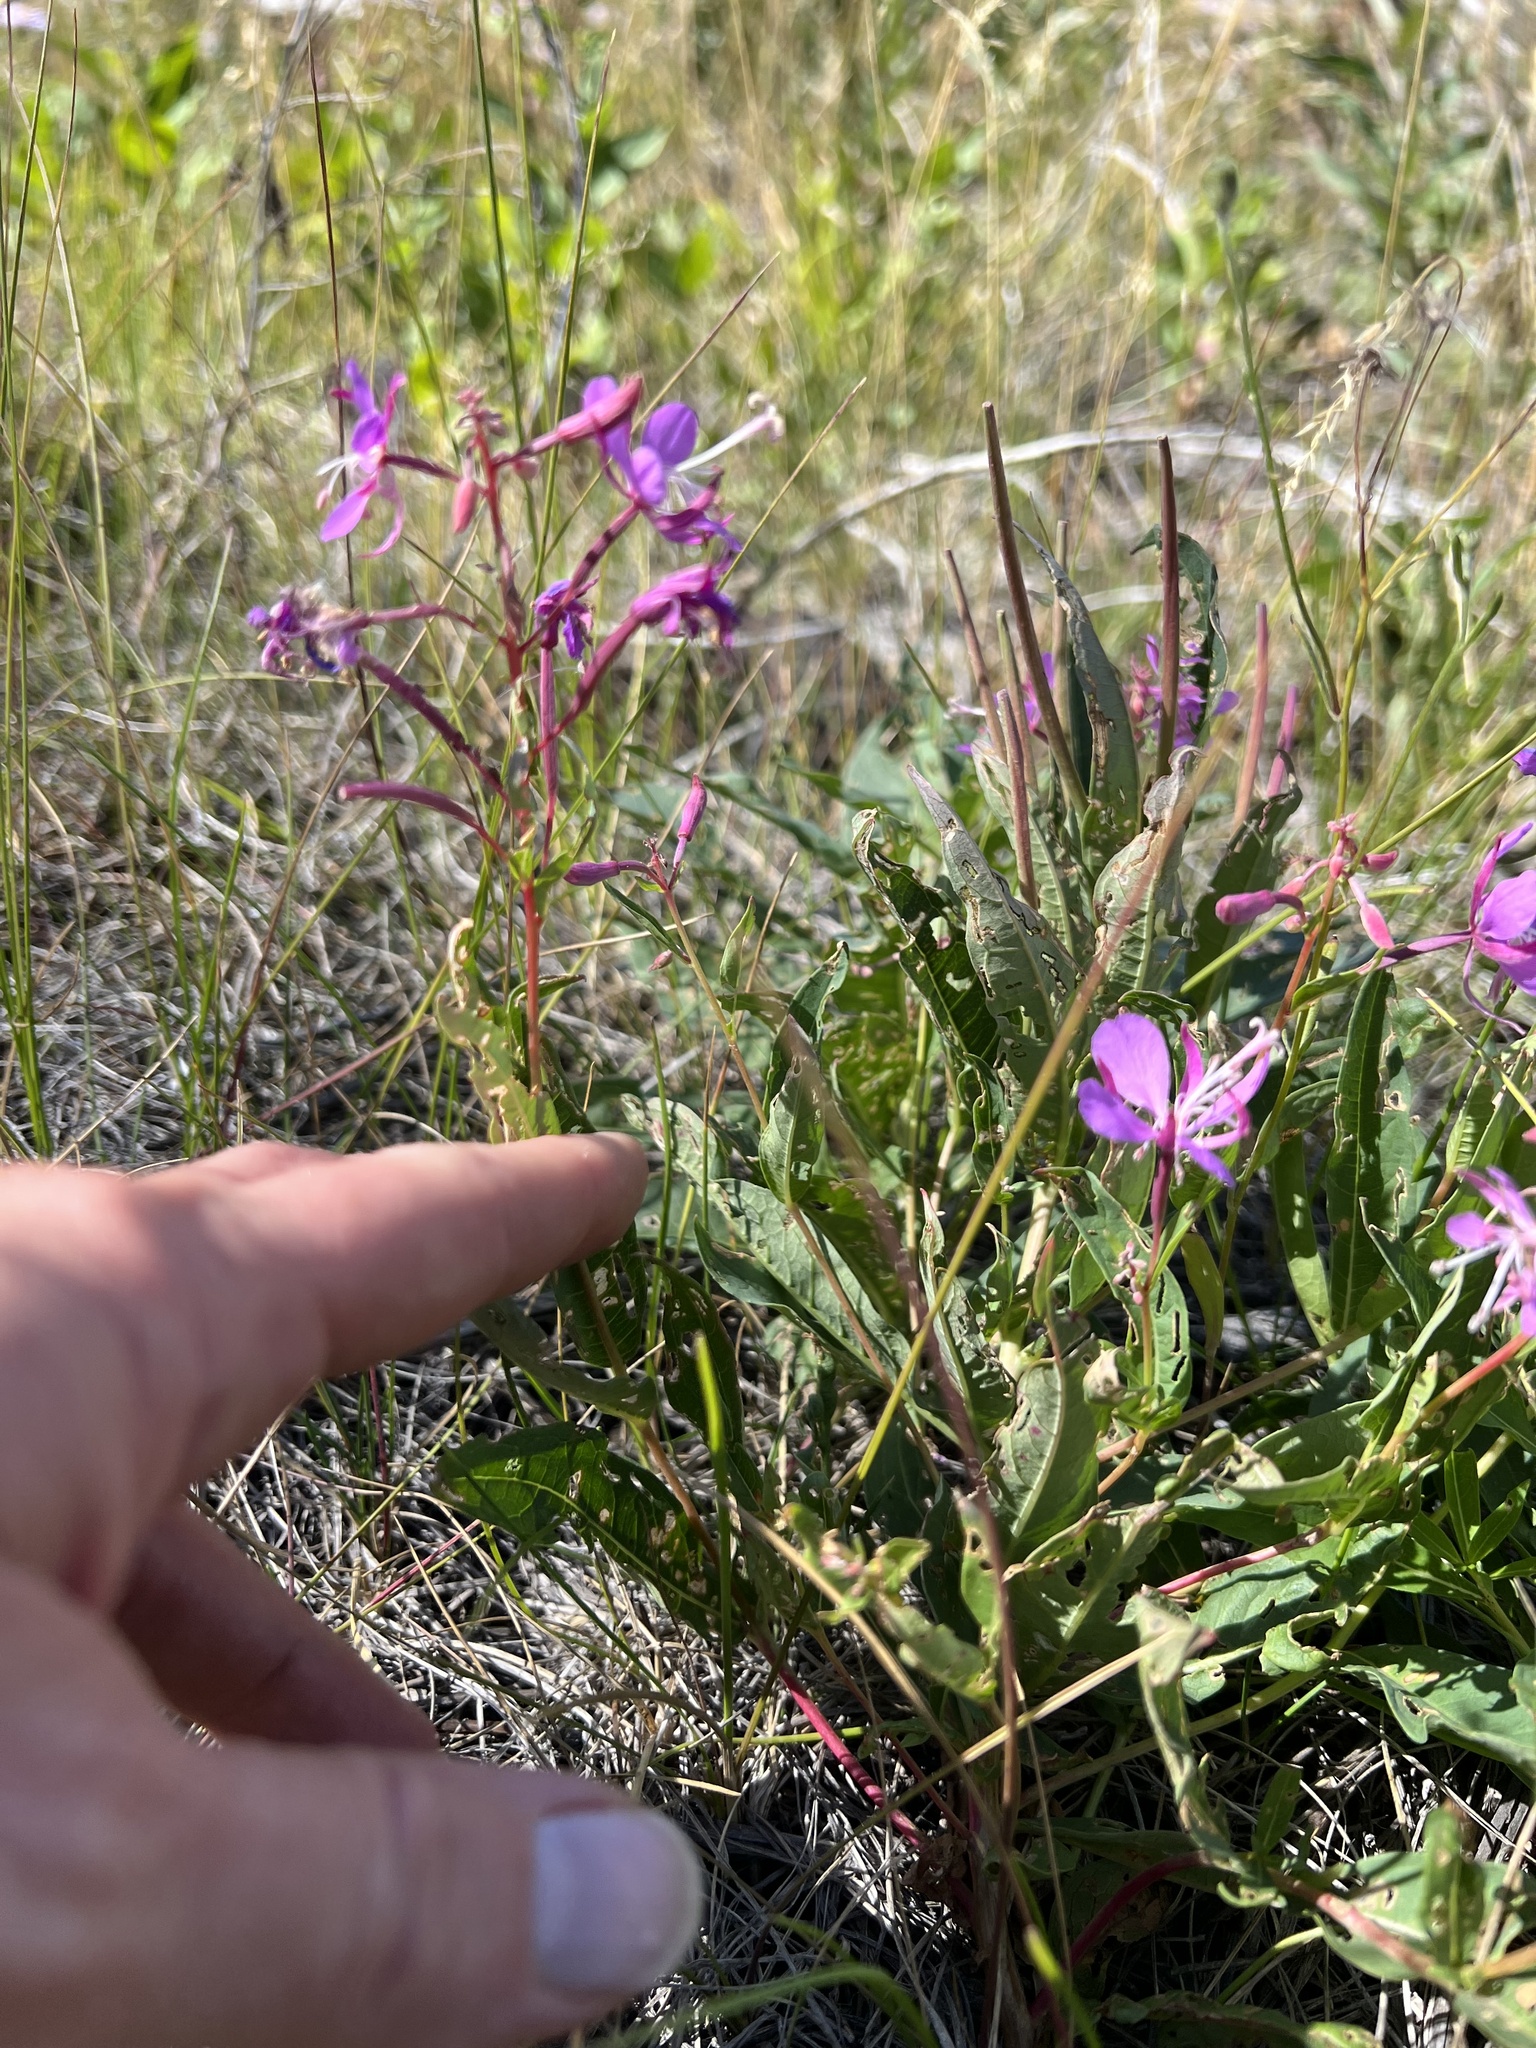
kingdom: Plantae
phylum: Tracheophyta
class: Magnoliopsida
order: Myrtales
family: Onagraceae
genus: Chamaenerion
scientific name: Chamaenerion angustifolium
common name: Fireweed
